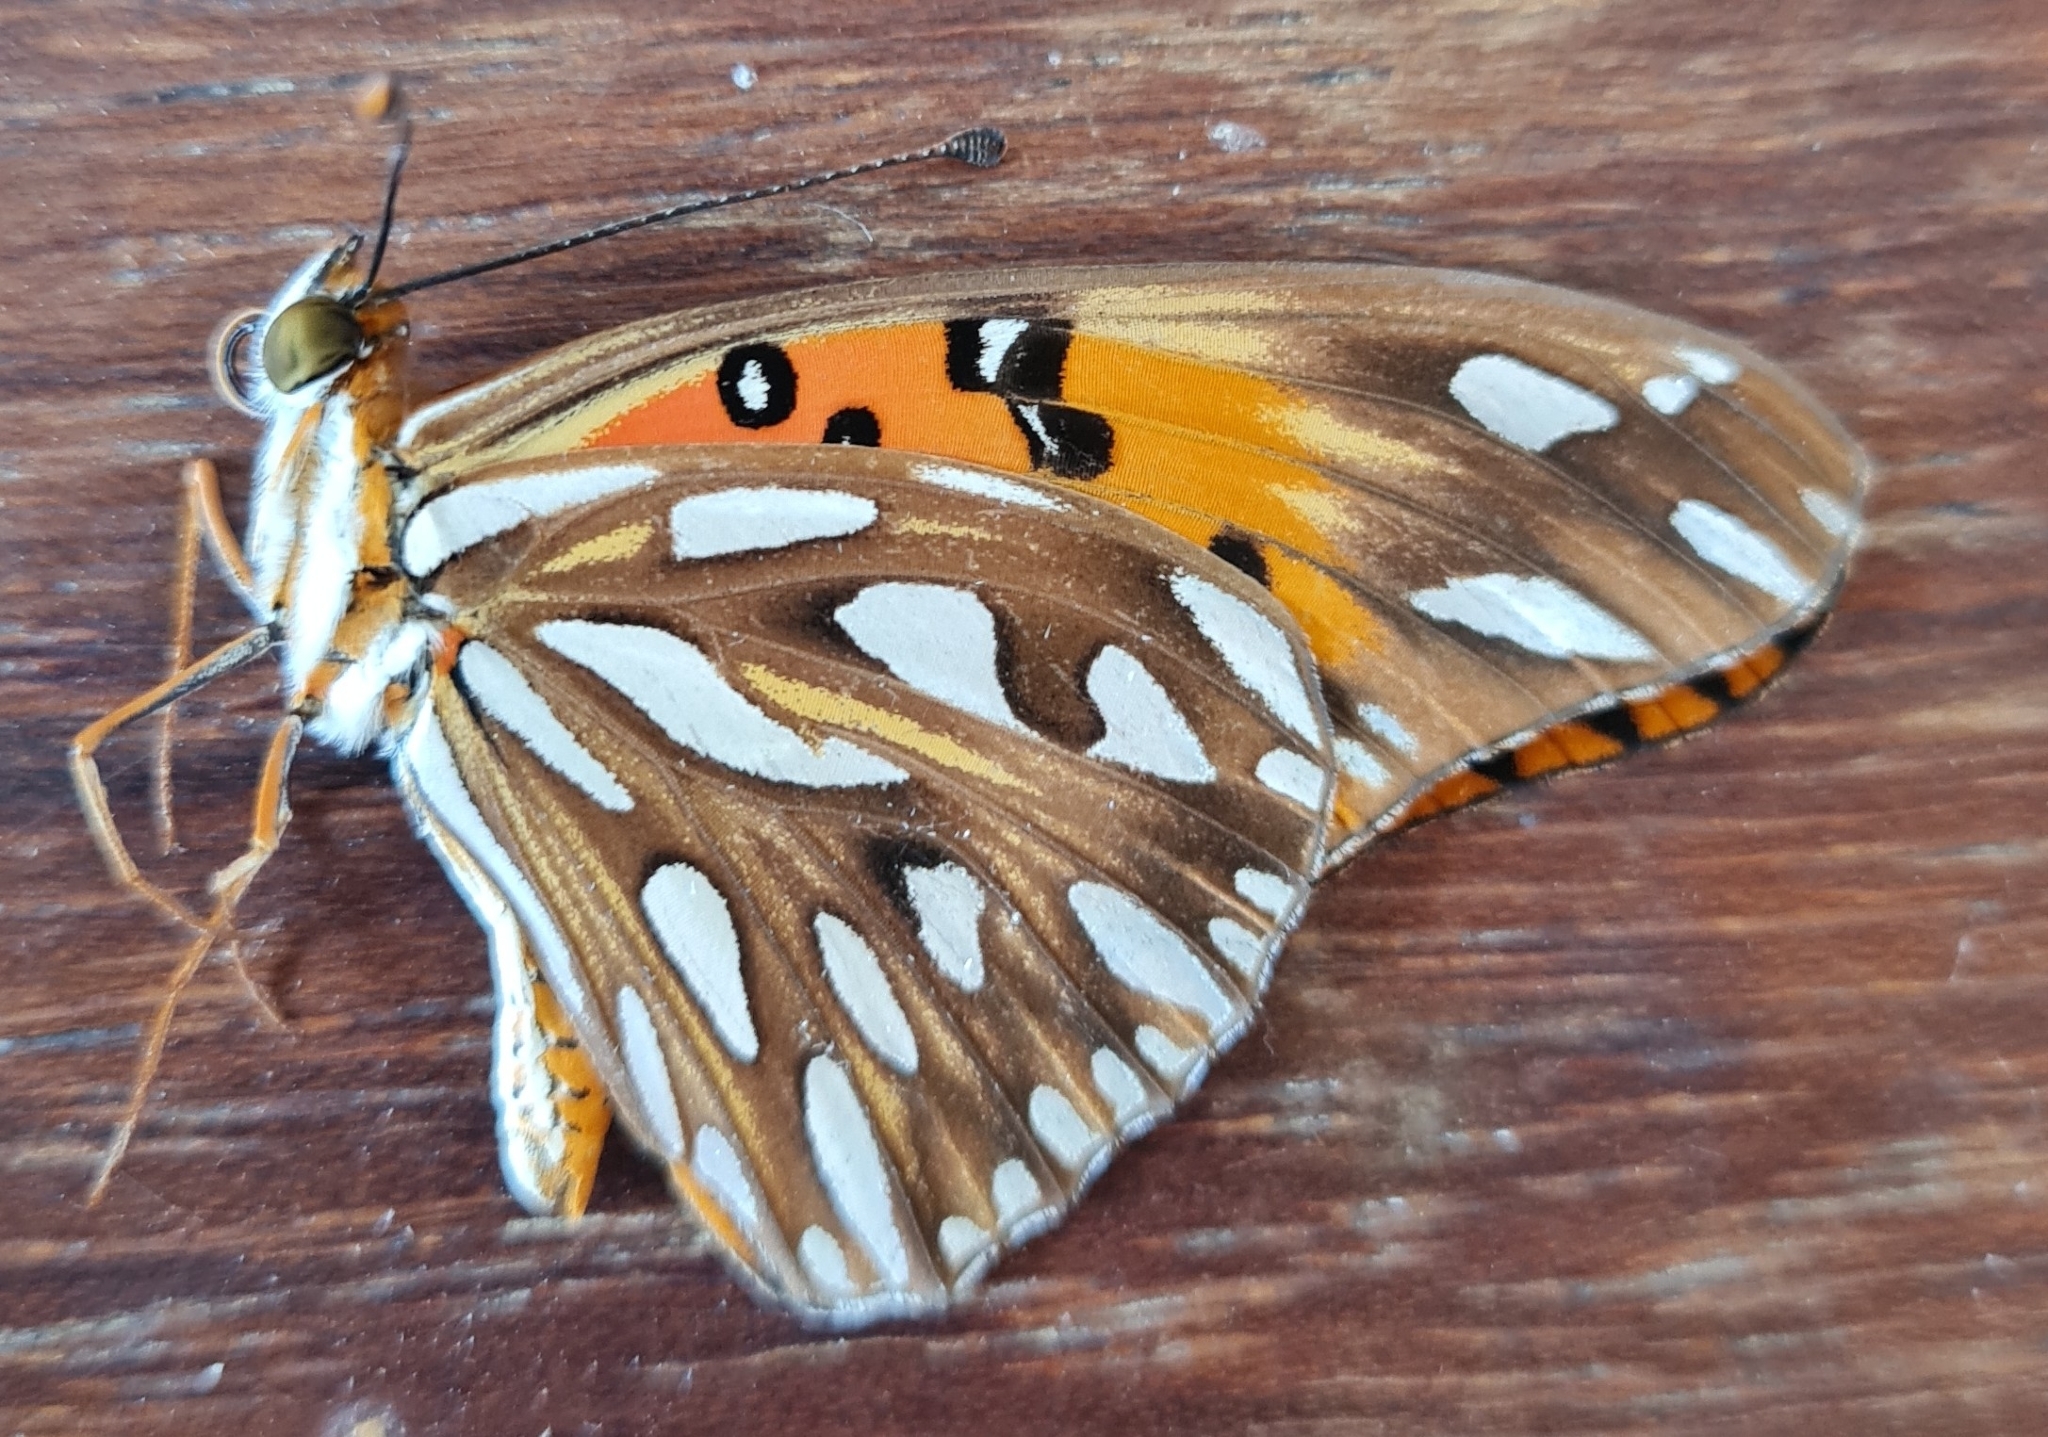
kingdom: Animalia
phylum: Arthropoda
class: Insecta
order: Lepidoptera
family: Nymphalidae
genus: Dione
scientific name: Dione vanillae
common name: Gulf fritillary
